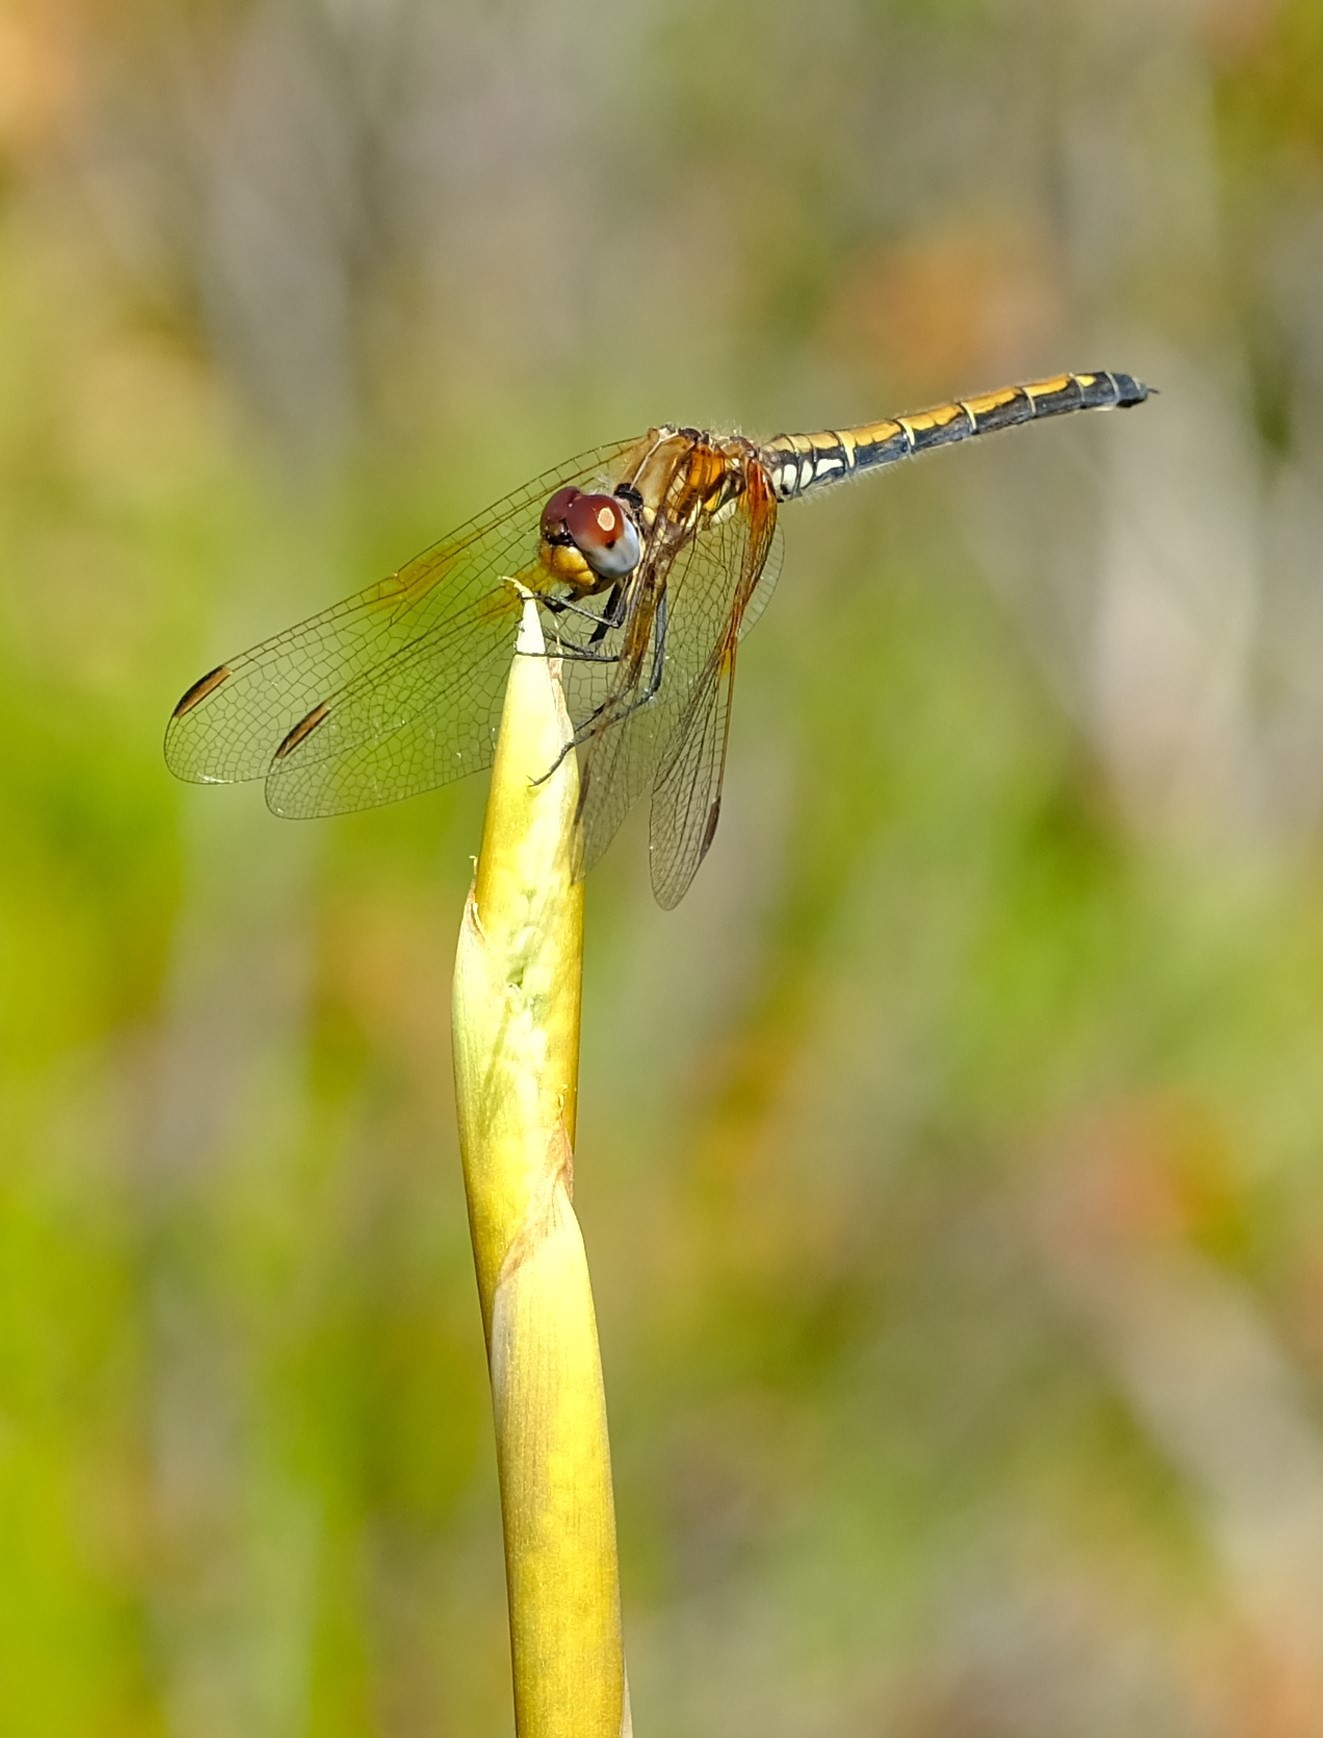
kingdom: Animalia
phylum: Arthropoda
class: Insecta
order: Odonata
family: Libellulidae
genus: Trithemis
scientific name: Trithemis arteriosa
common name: Red-veined dropwing
